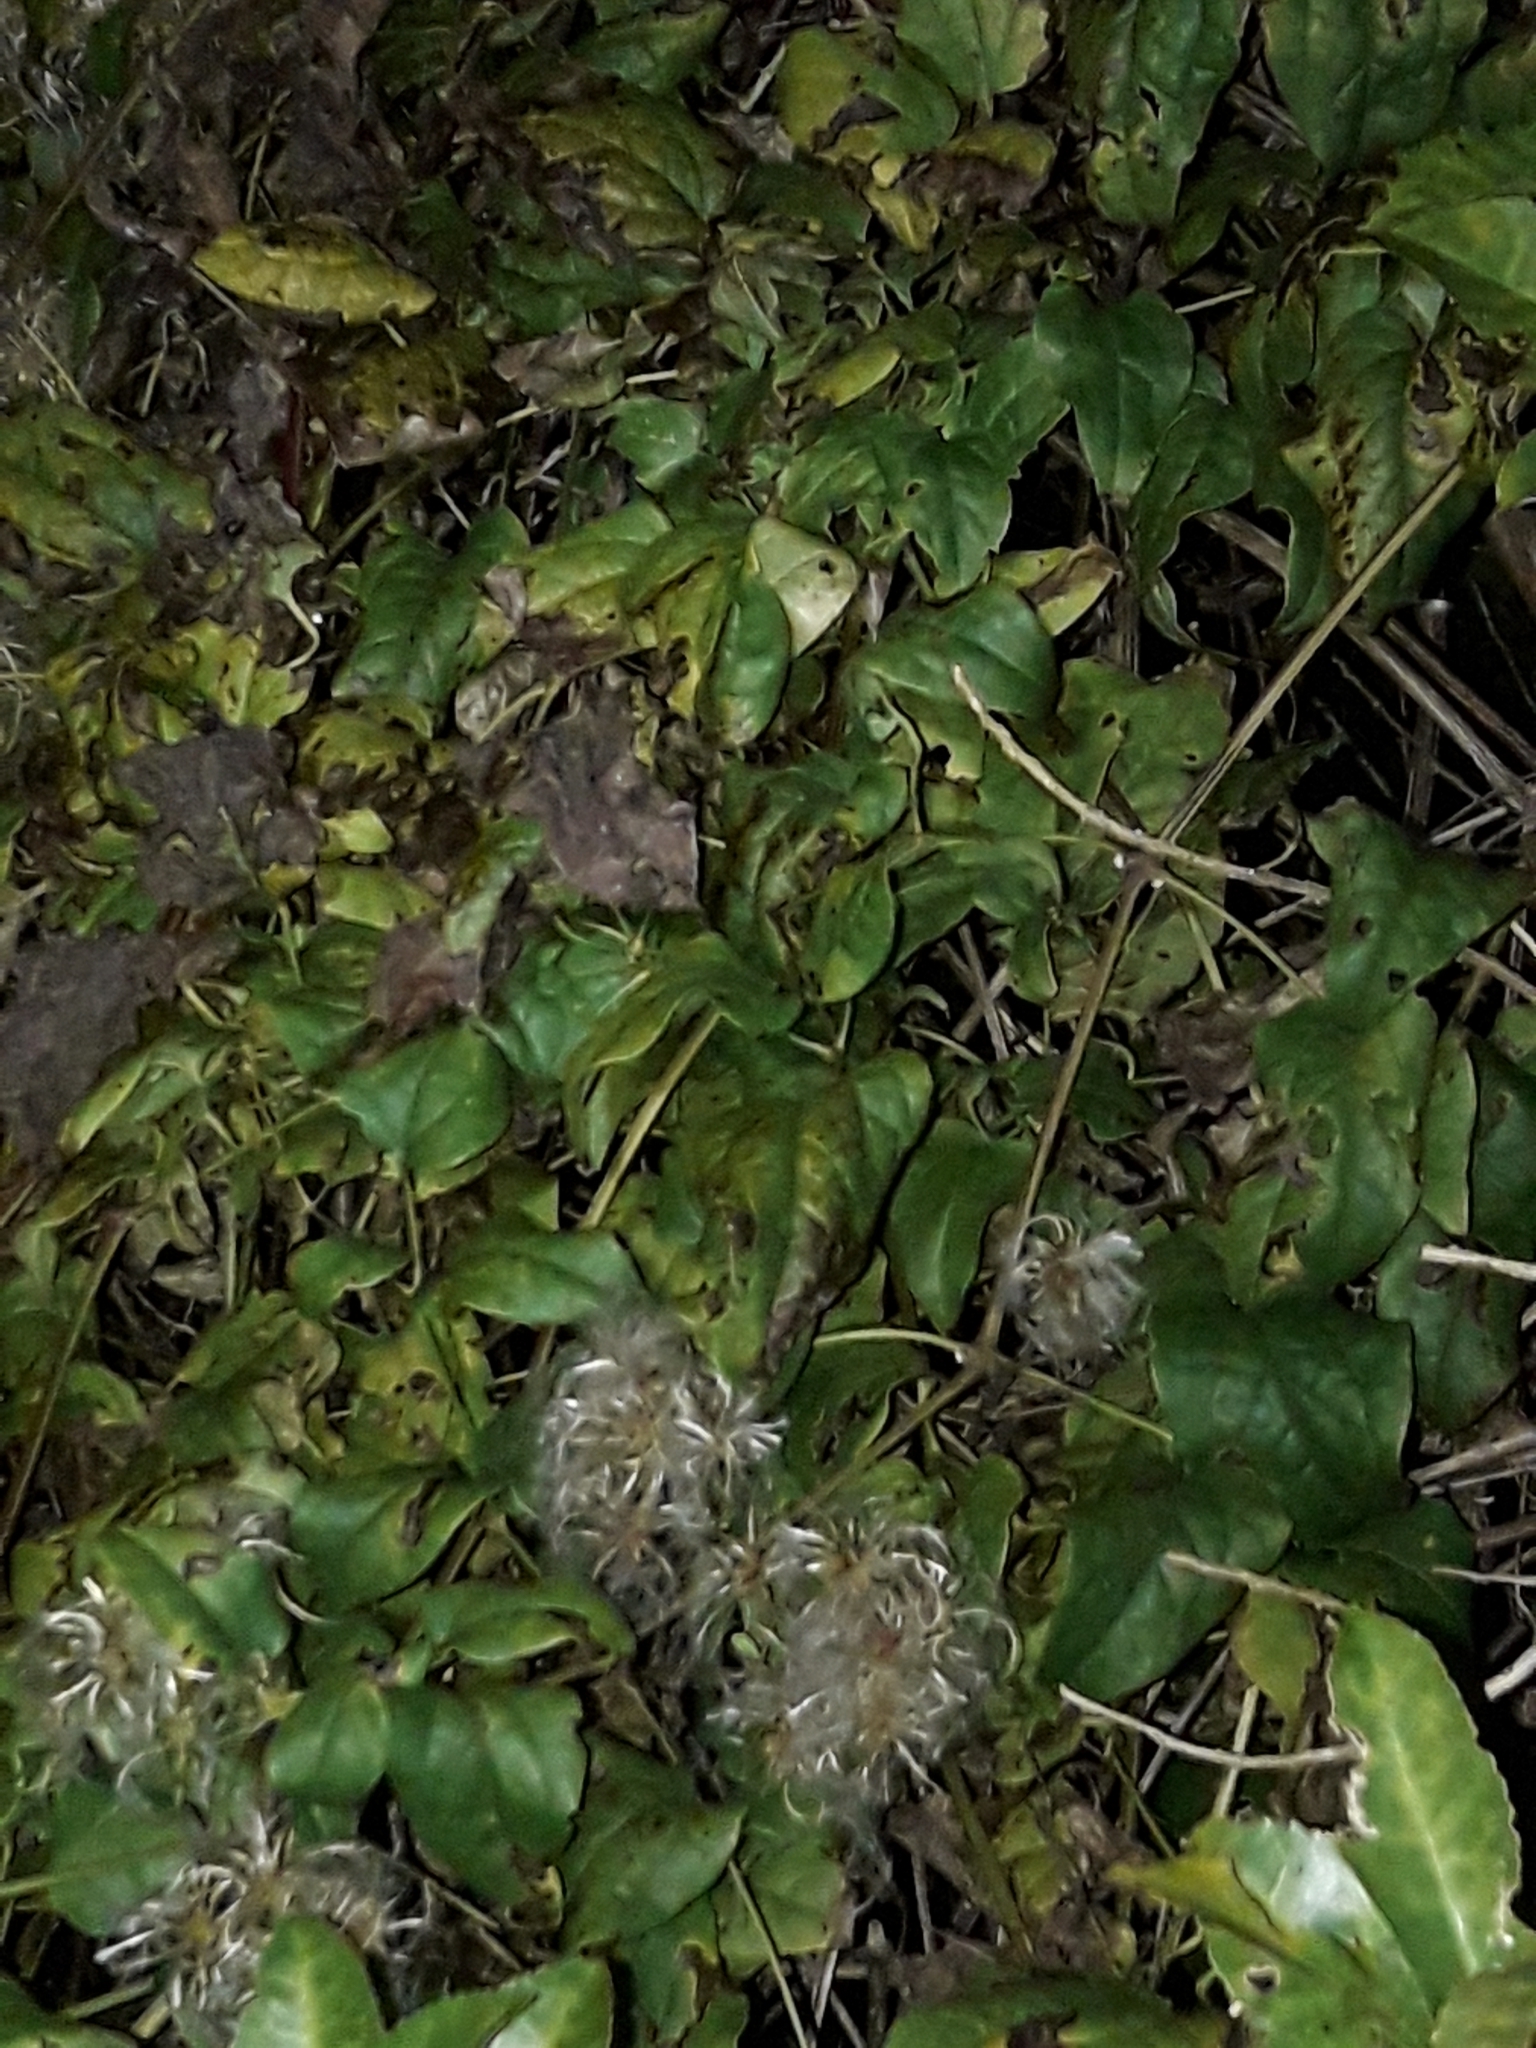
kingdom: Plantae
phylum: Tracheophyta
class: Magnoliopsida
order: Ranunculales
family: Ranunculaceae
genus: Clematis
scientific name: Clematis vitalba
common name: Evergreen clematis
